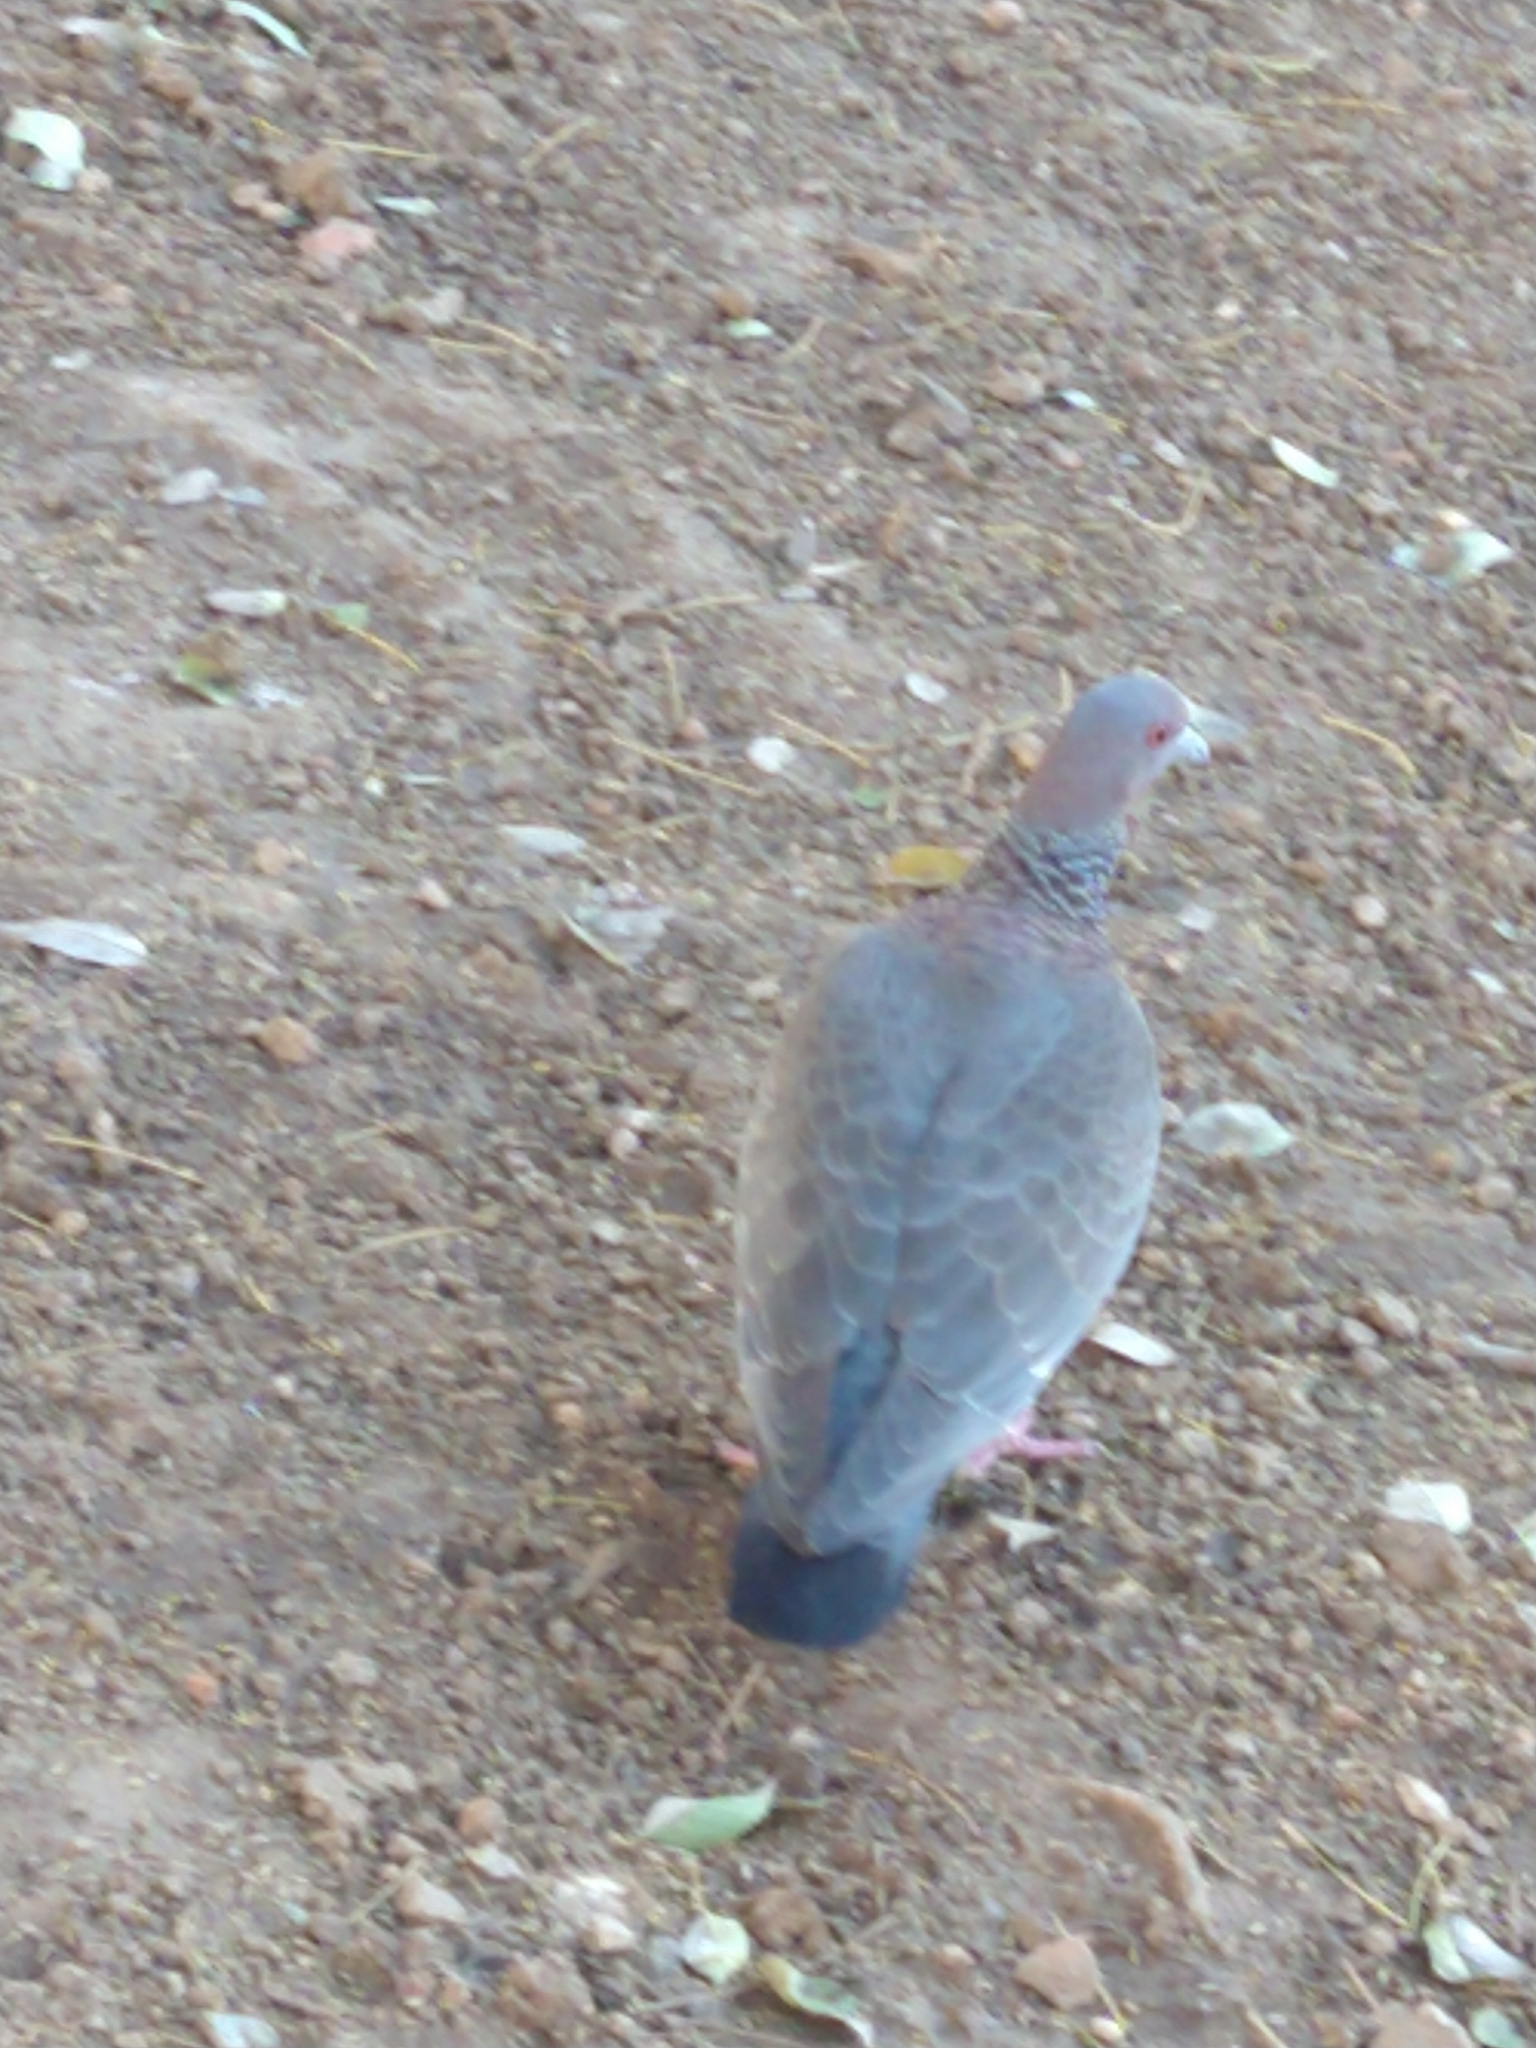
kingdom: Animalia
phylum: Chordata
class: Aves
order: Columbiformes
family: Columbidae
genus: Patagioenas
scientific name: Patagioenas picazuro
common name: Picazuro pigeon
